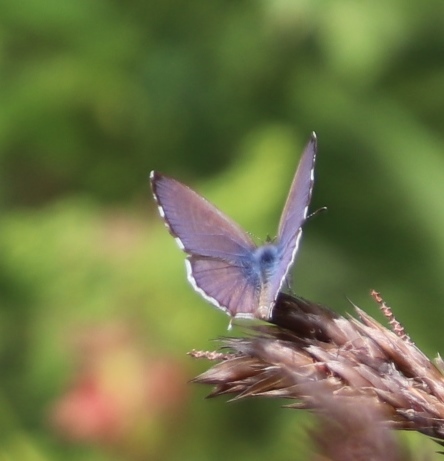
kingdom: Animalia
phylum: Arthropoda
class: Insecta
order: Lepidoptera
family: Lycaenidae
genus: Cacyreus
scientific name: Cacyreus lingeus
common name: Bush bronze
